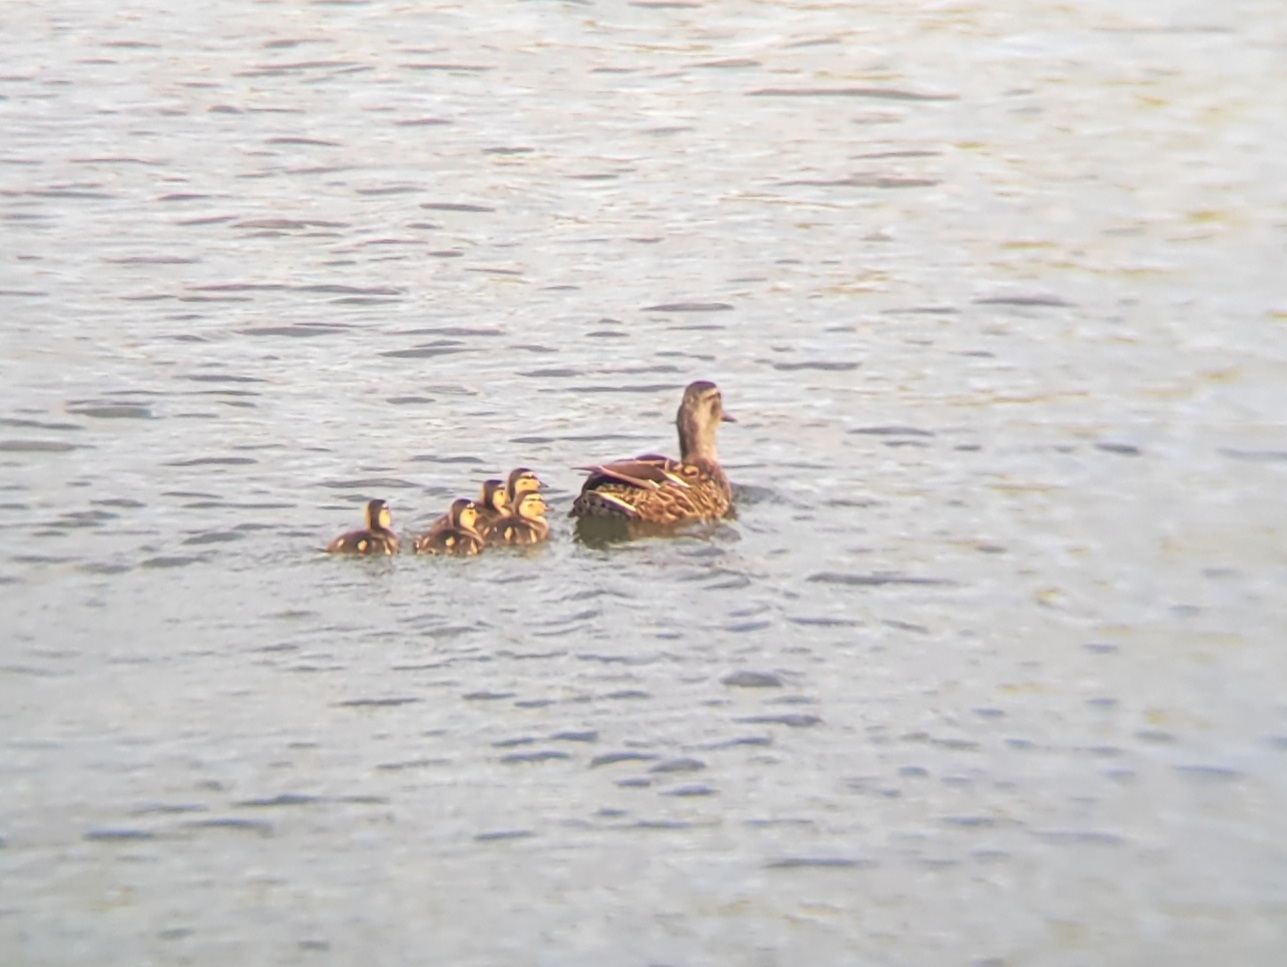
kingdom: Animalia
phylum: Chordata
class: Aves
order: Anseriformes
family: Anatidae
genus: Anas
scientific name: Anas platyrhynchos
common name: Mallard
